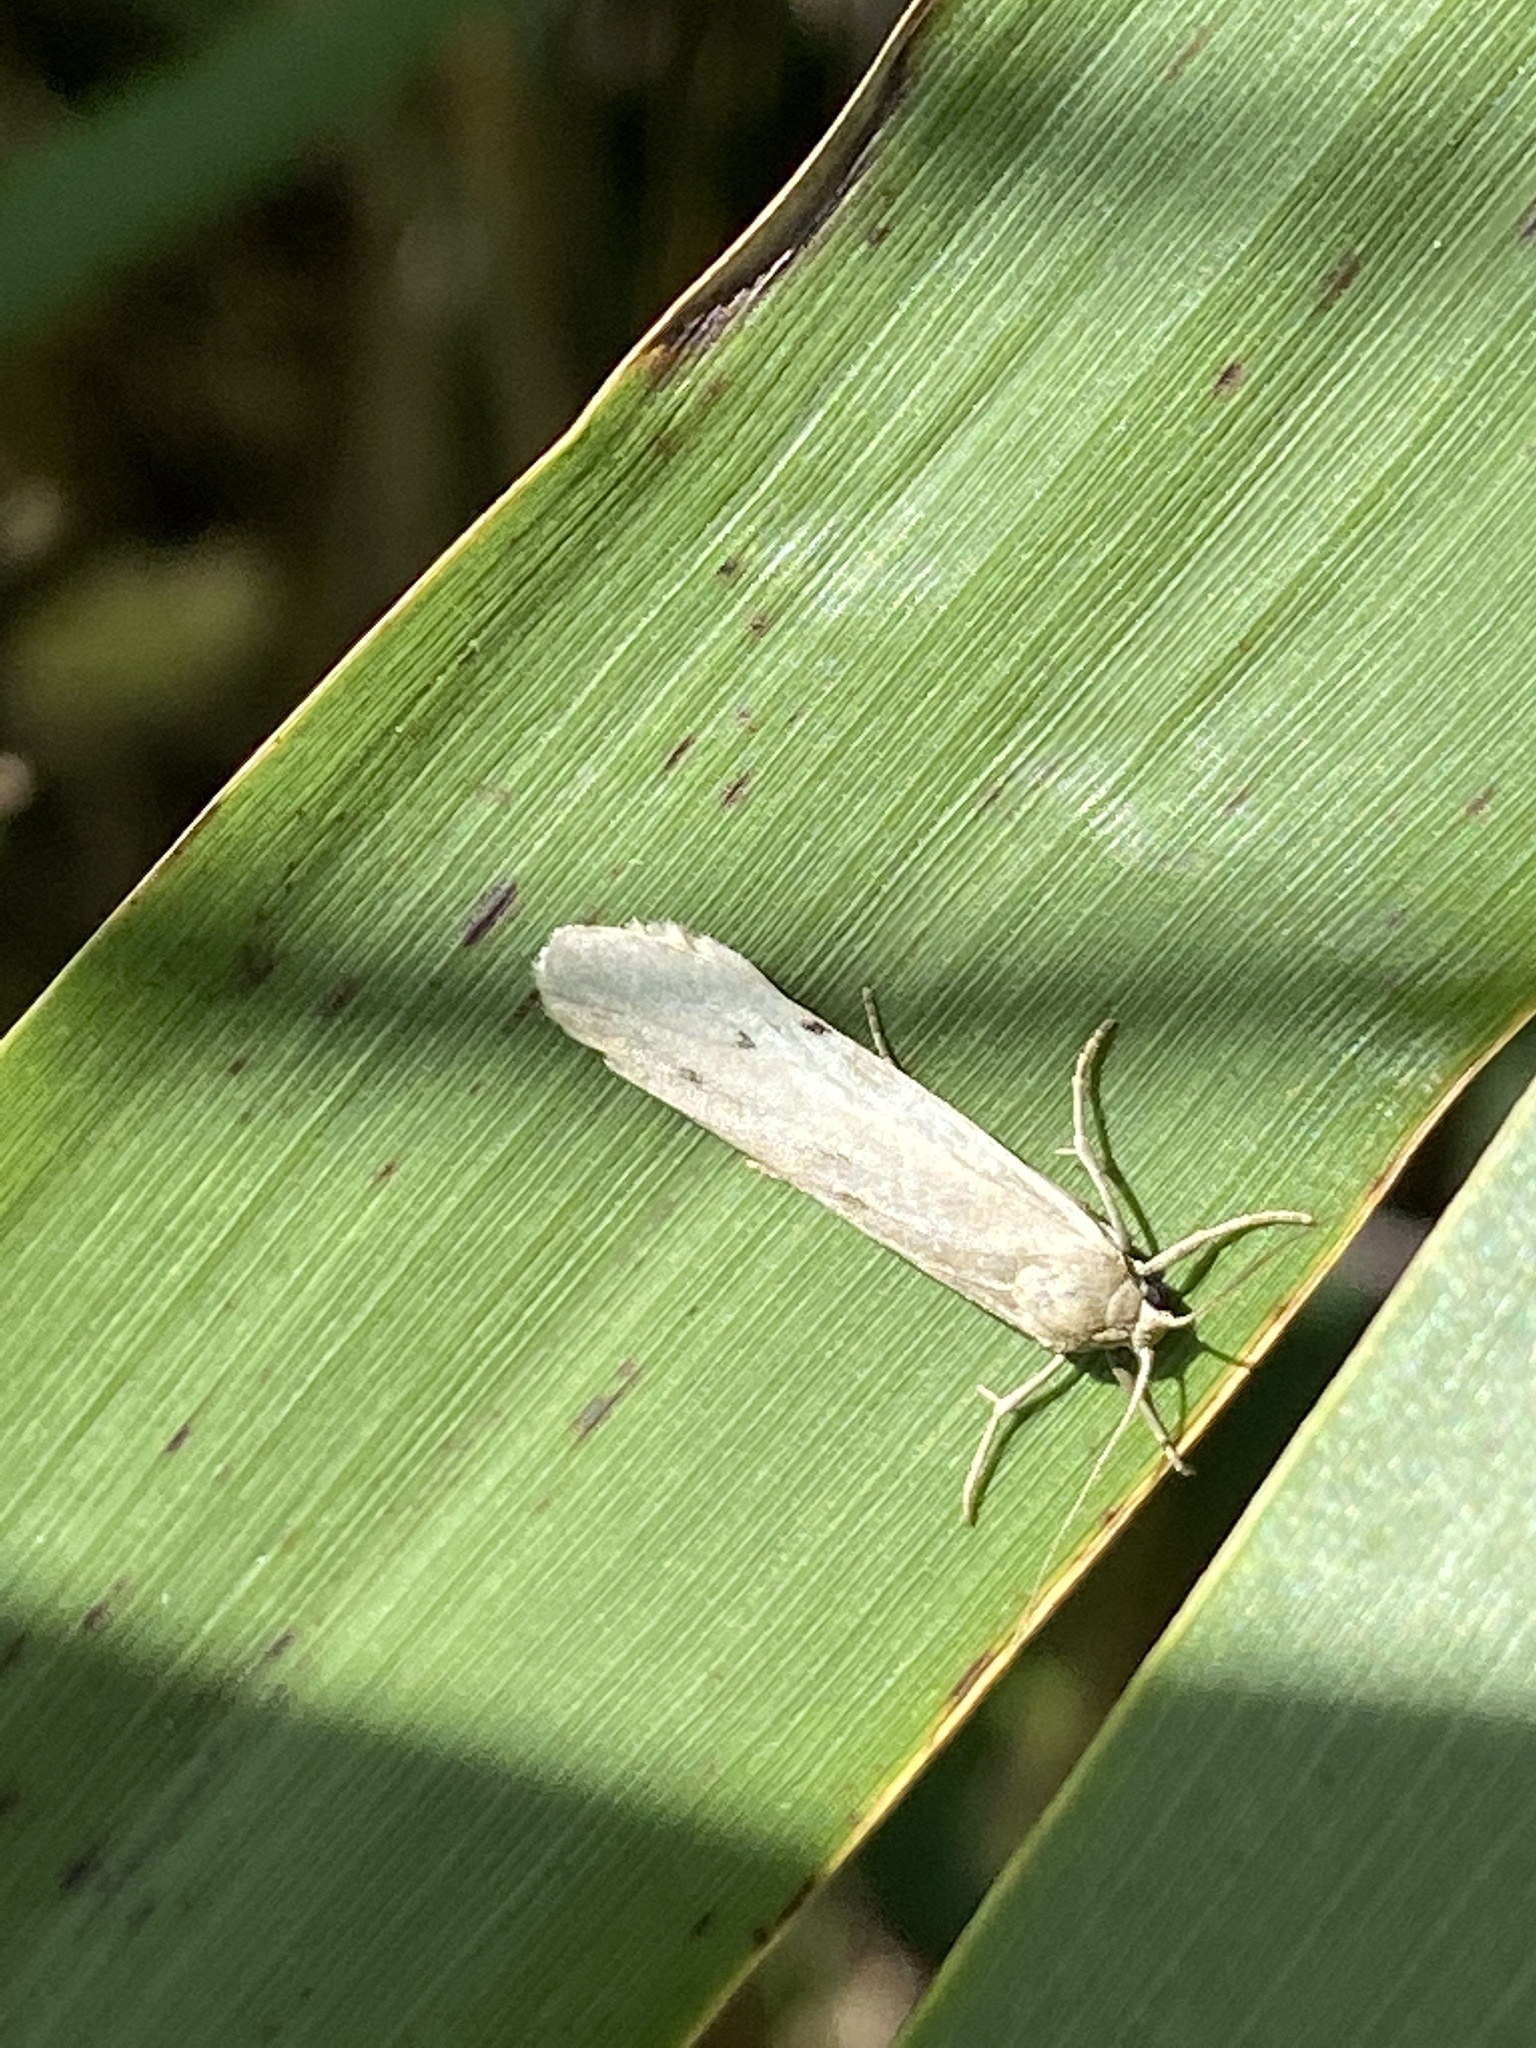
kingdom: Animalia
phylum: Arthropoda
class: Insecta
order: Lepidoptera
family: Erebidae
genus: Pelosia
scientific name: Pelosia muscerda
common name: Dotted footman
